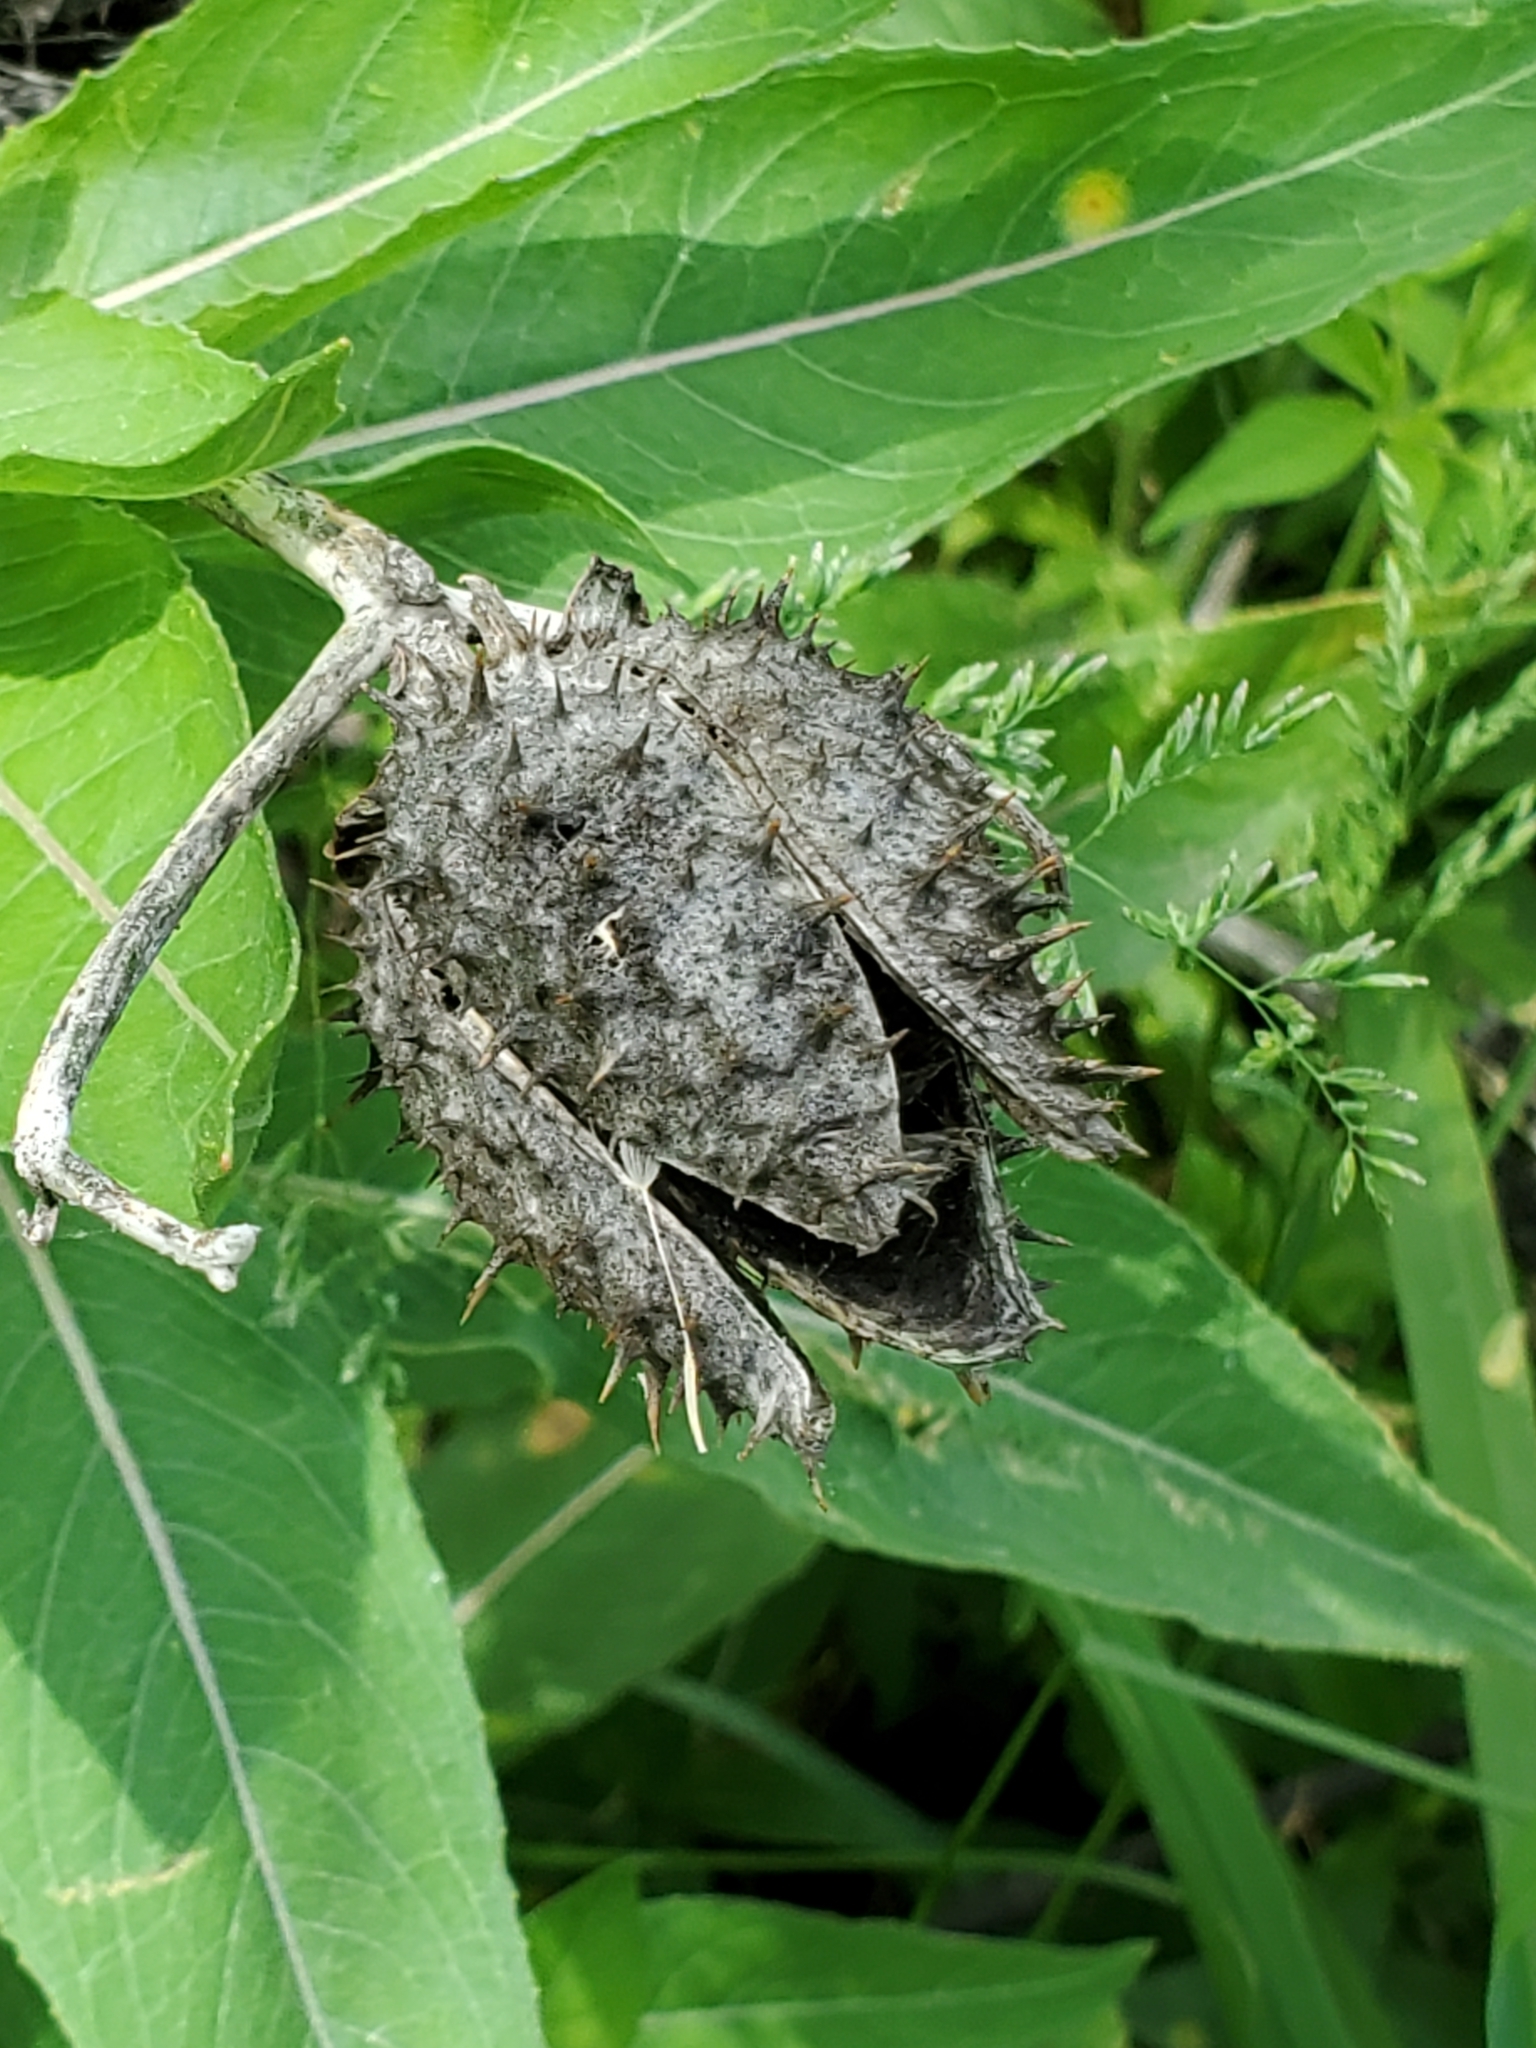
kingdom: Plantae
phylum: Tracheophyta
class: Magnoliopsida
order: Solanales
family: Solanaceae
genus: Datura
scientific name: Datura stramonium
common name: Thorn-apple
